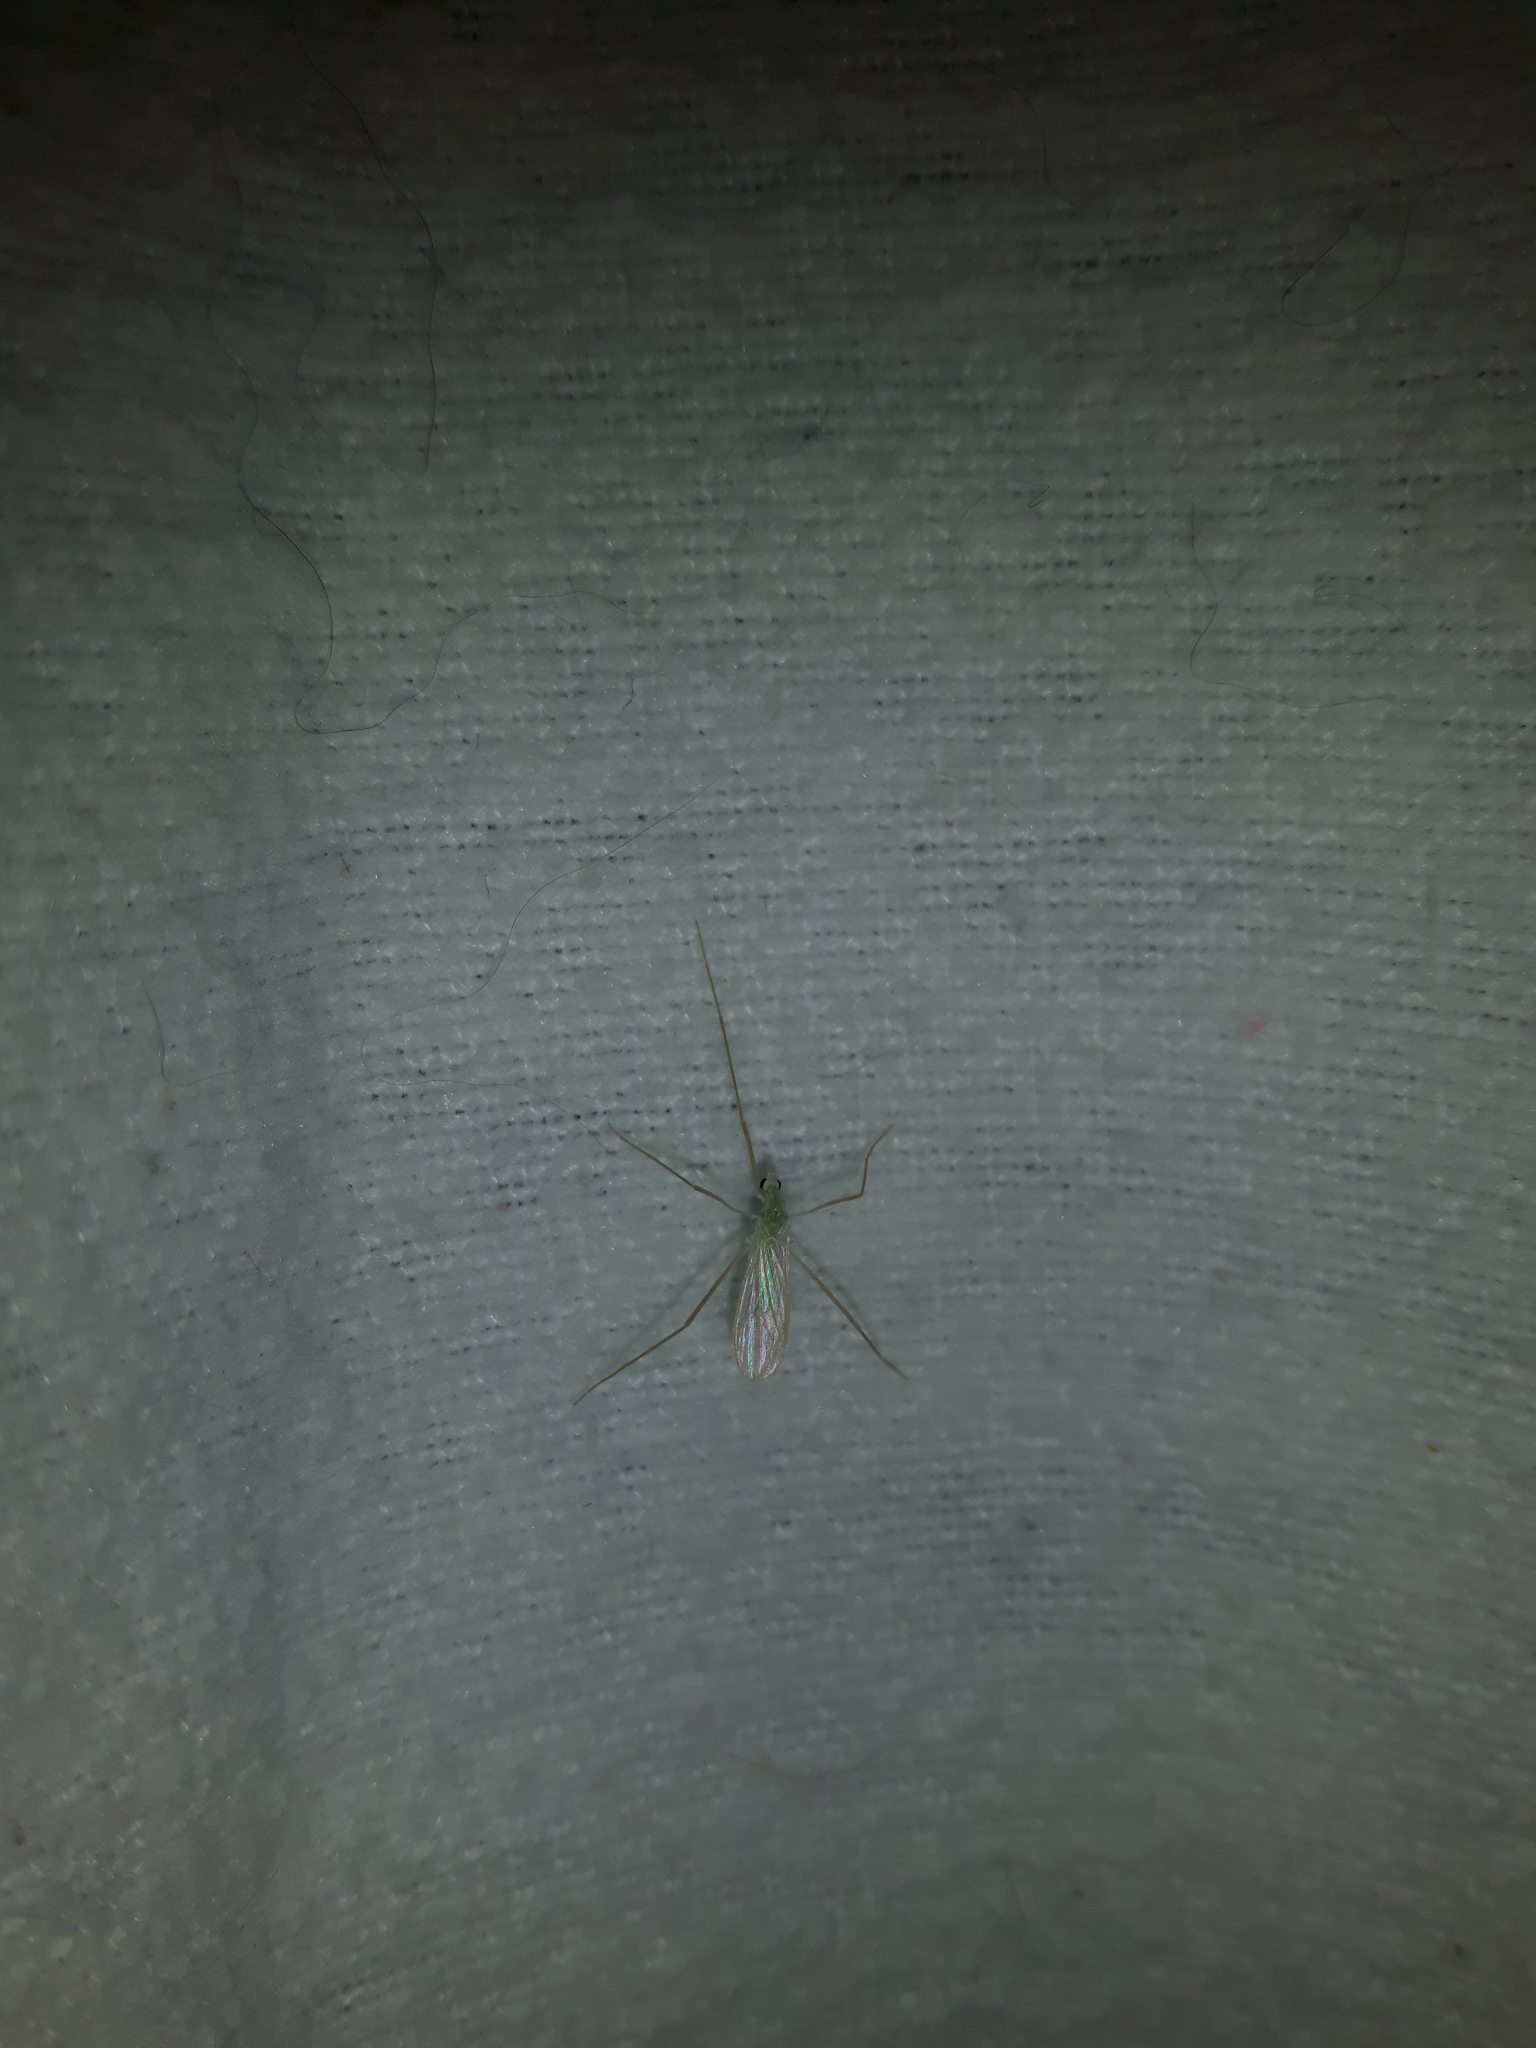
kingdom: Animalia
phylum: Arthropoda
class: Insecta
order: Diptera
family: Limoniidae
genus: Erioptera
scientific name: Erioptera
